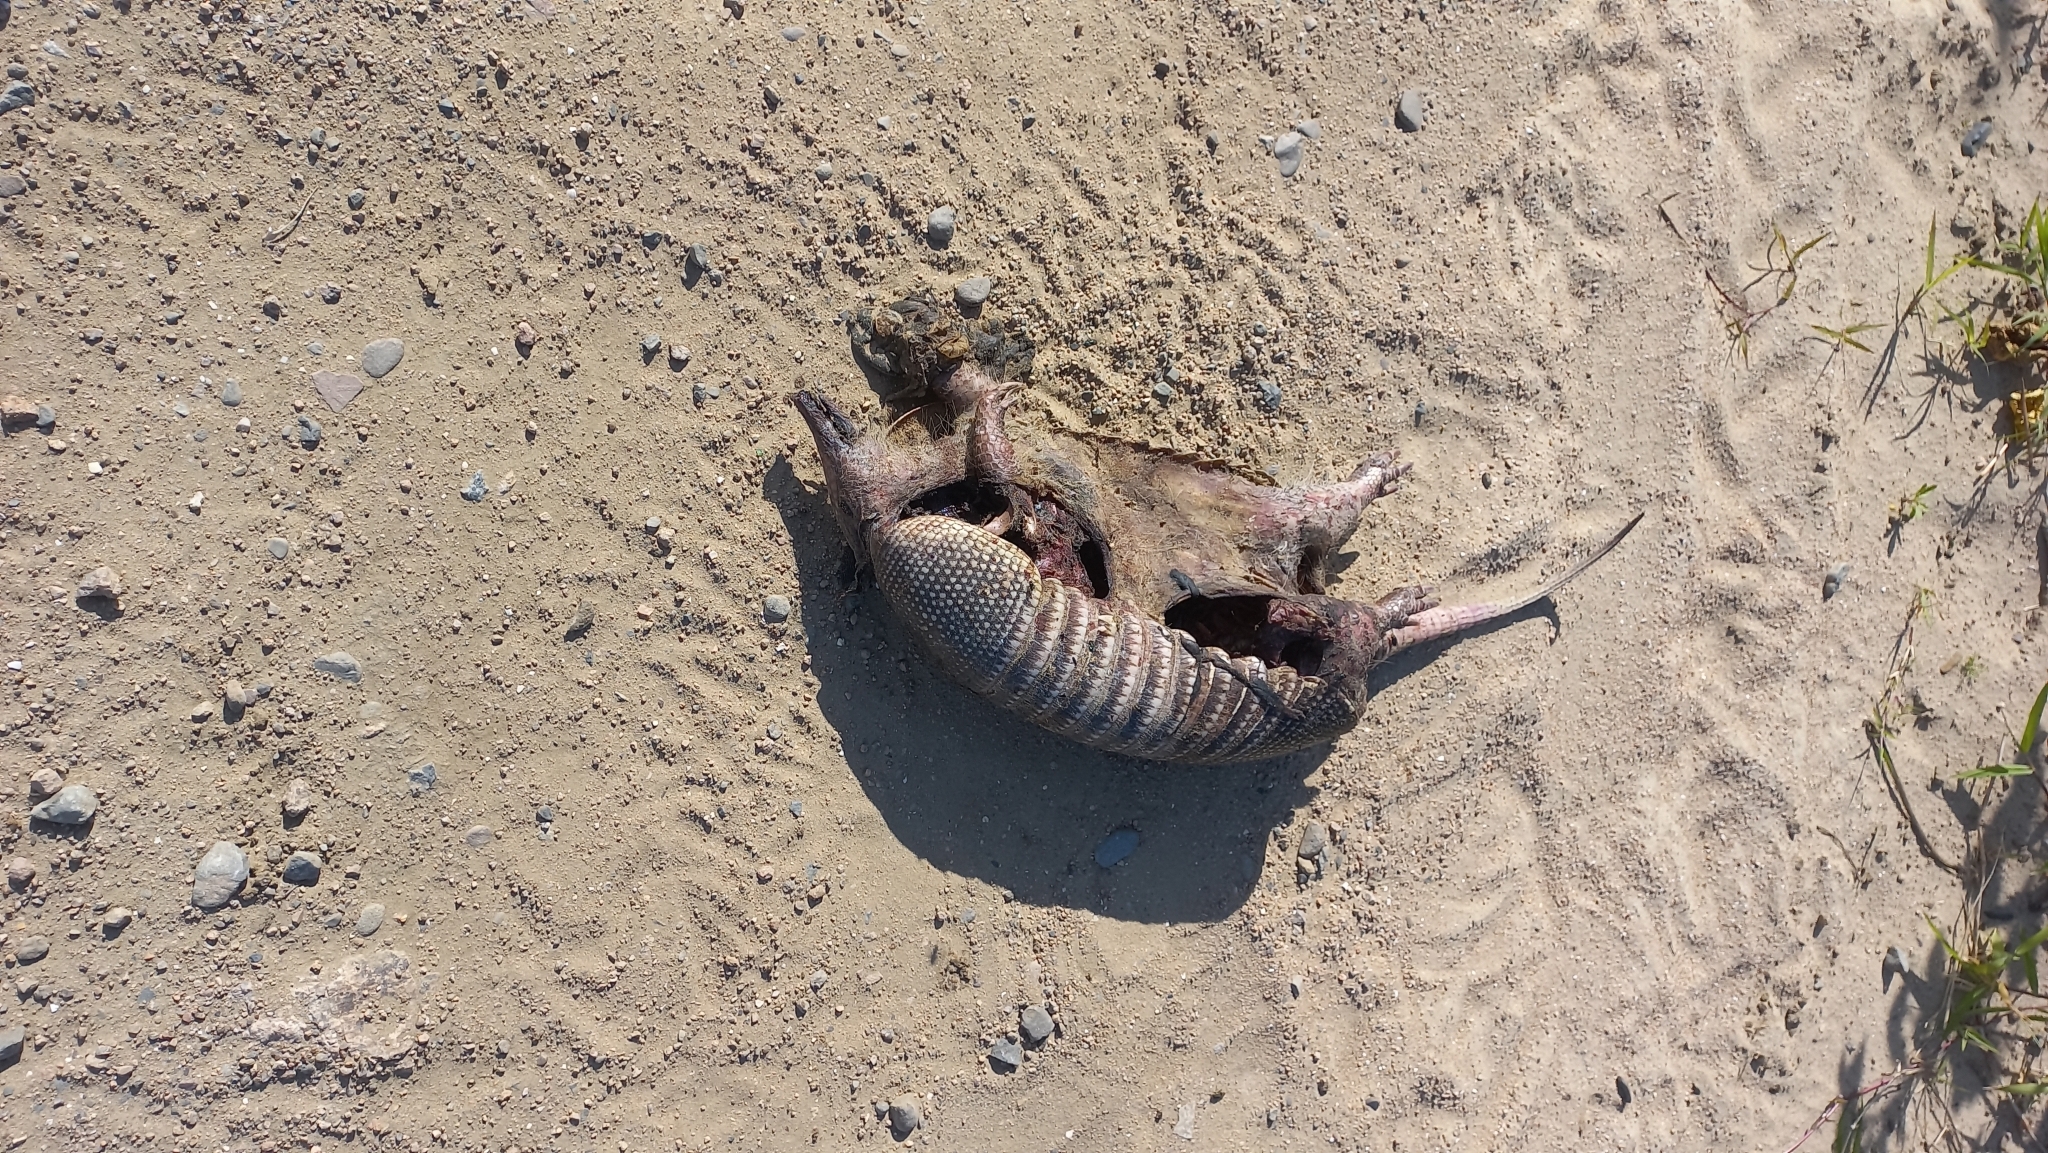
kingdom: Animalia
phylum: Chordata
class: Mammalia
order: Cingulata
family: Dasypodidae
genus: Dasypus
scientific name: Dasypus novemcinctus
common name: Nine-banded armadillo
